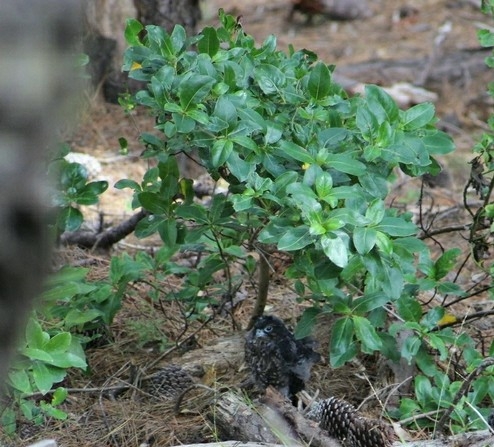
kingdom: Plantae
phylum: Tracheophyta
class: Magnoliopsida
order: Gentianales
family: Rubiaceae
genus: Coprosma
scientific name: Coprosma robusta
